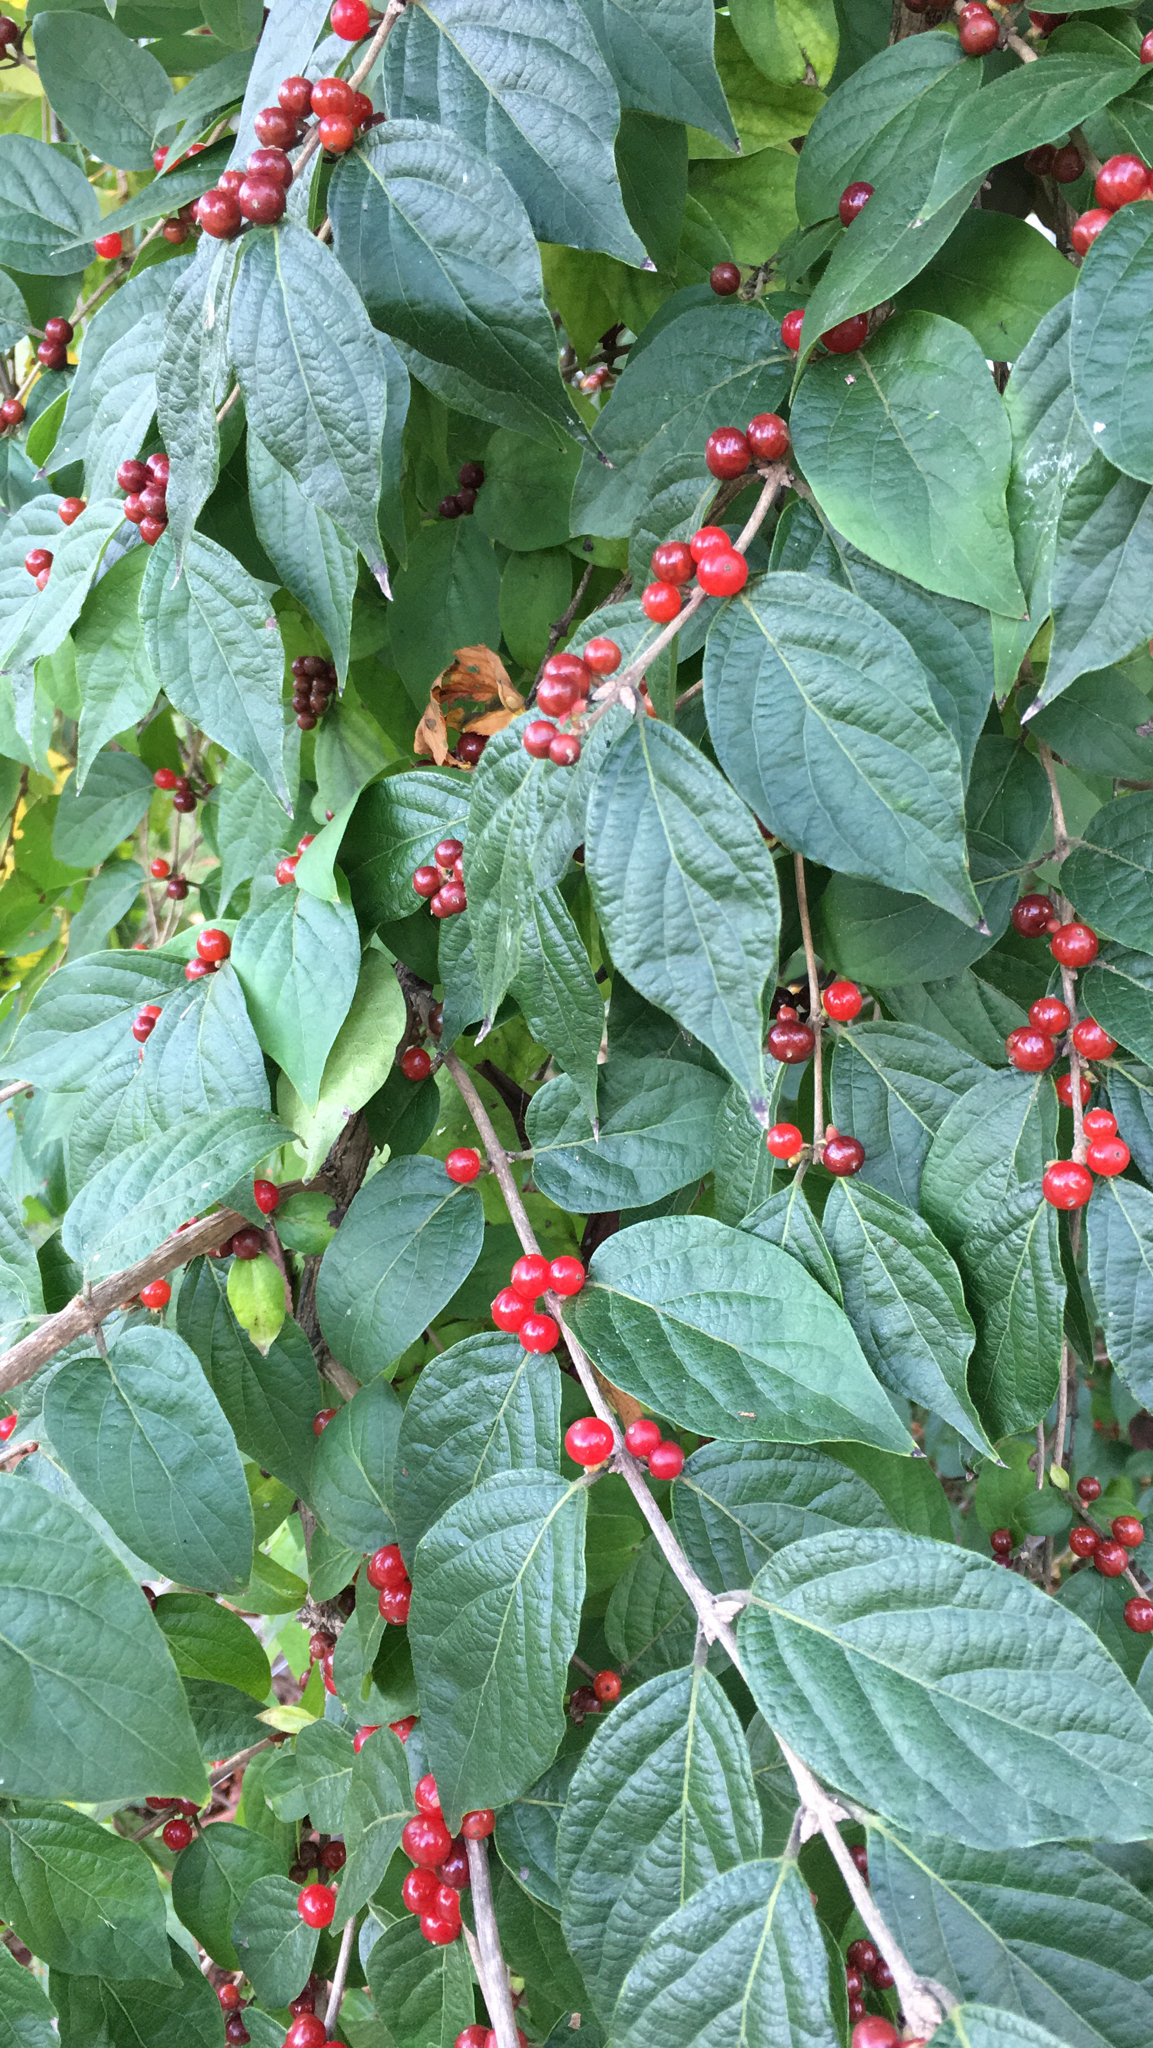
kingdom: Plantae
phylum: Tracheophyta
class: Magnoliopsida
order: Dipsacales
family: Caprifoliaceae
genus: Lonicera
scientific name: Lonicera maackii
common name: Amur honeysuckle
